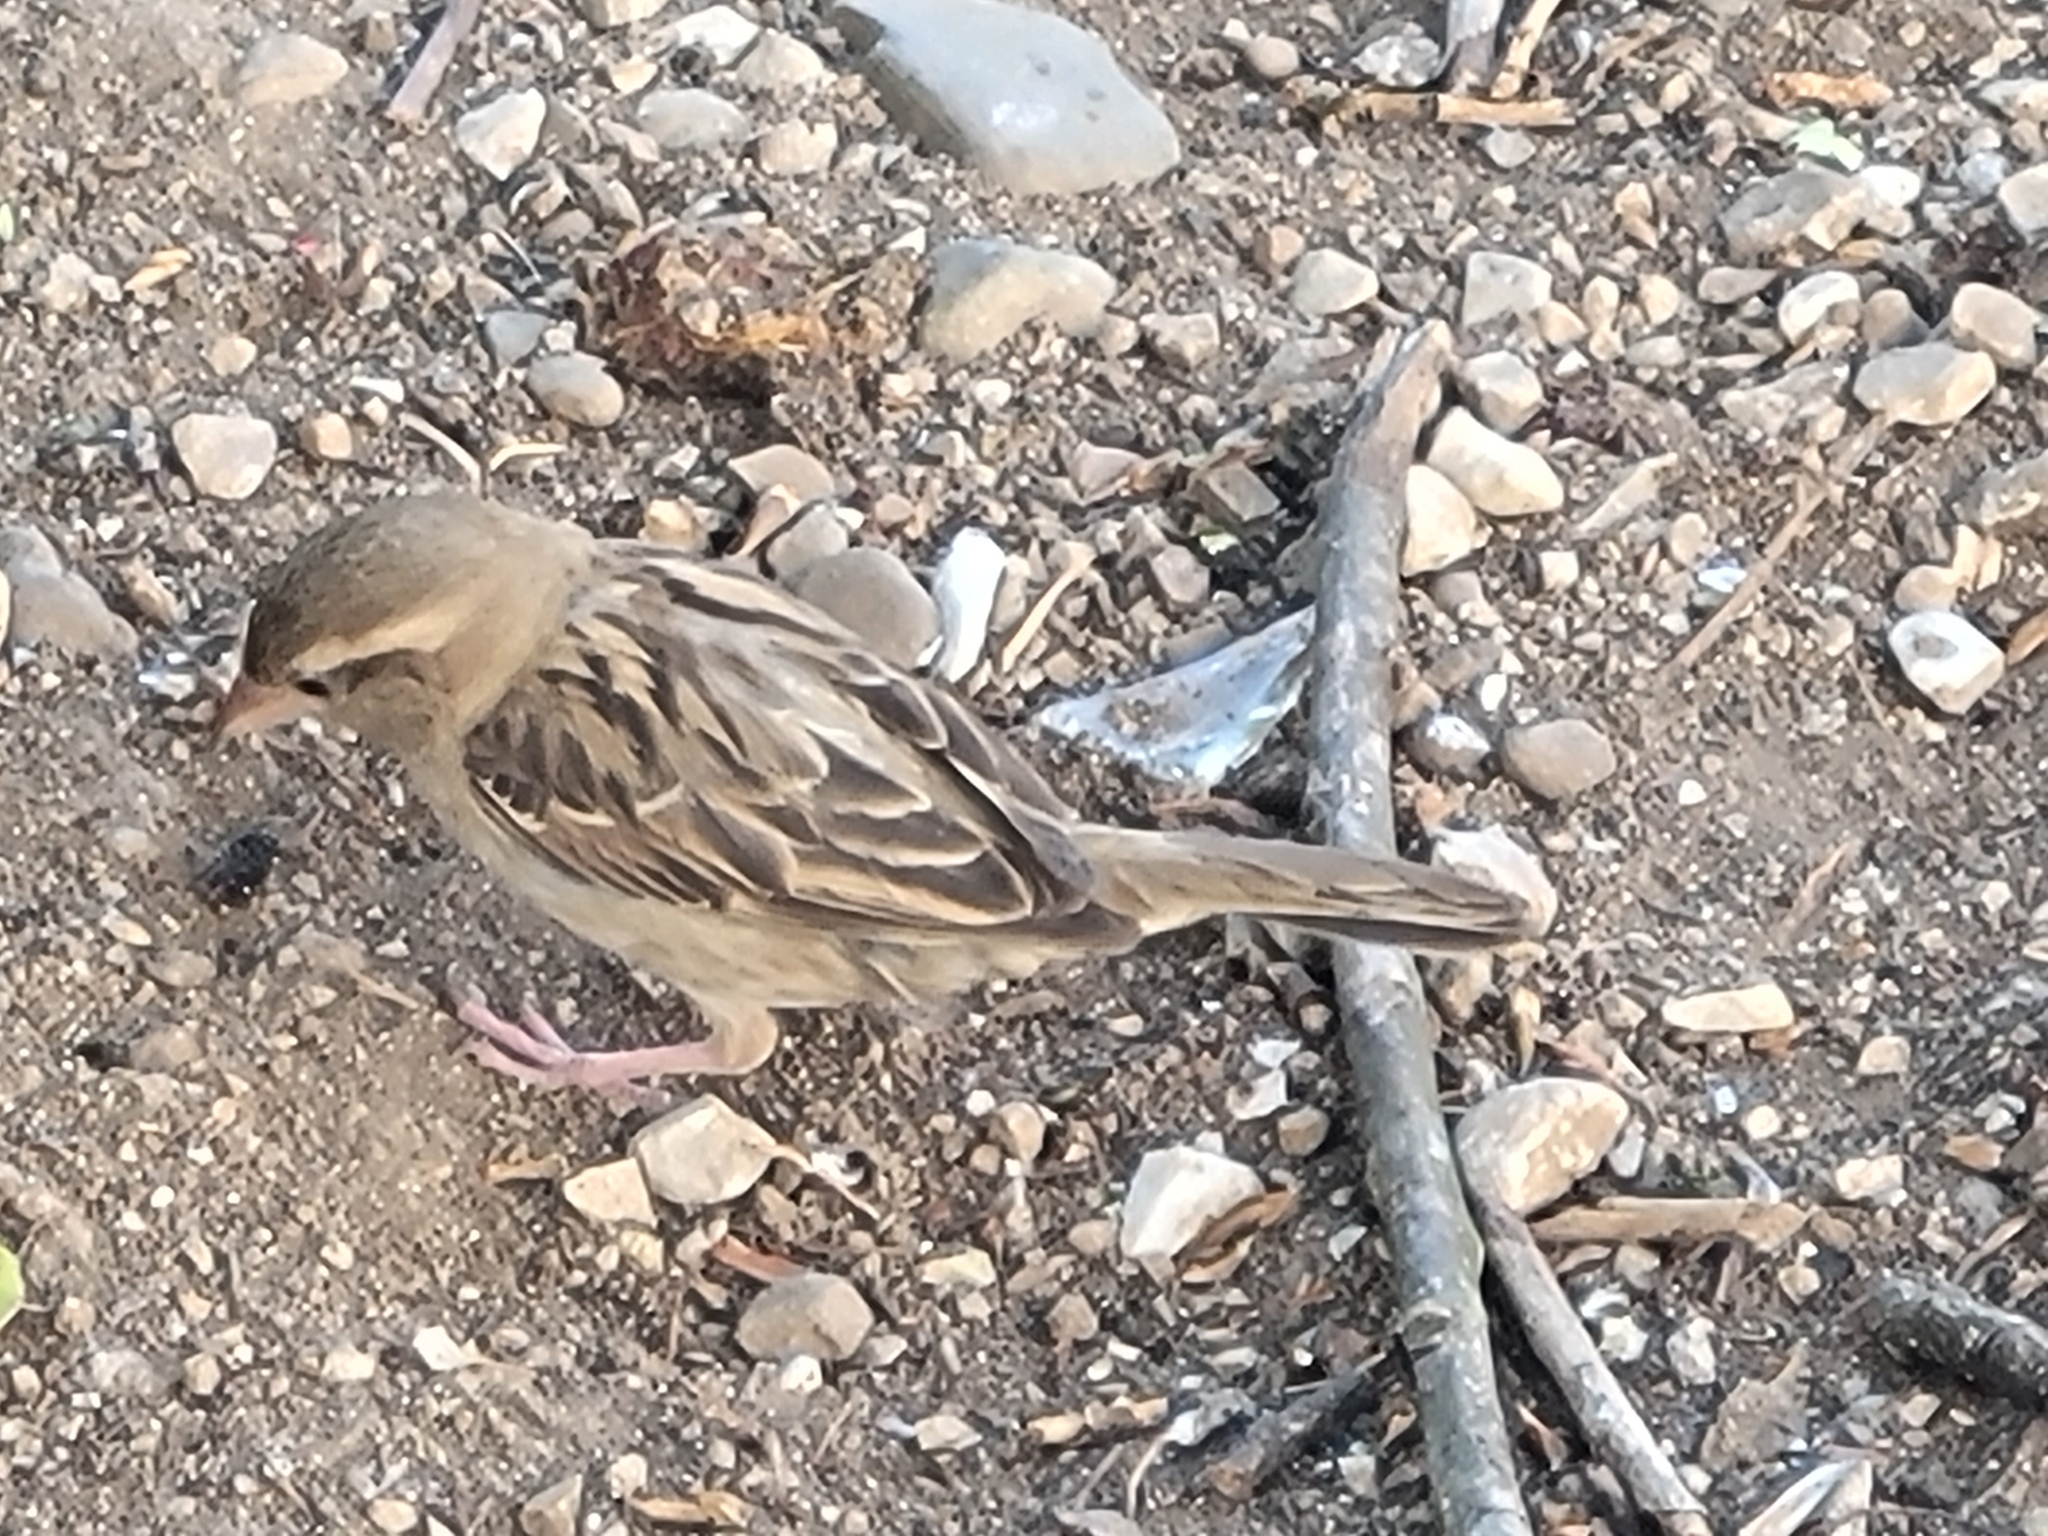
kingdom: Animalia
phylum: Chordata
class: Aves
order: Passeriformes
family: Passeridae
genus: Passer
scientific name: Passer domesticus
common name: House sparrow
